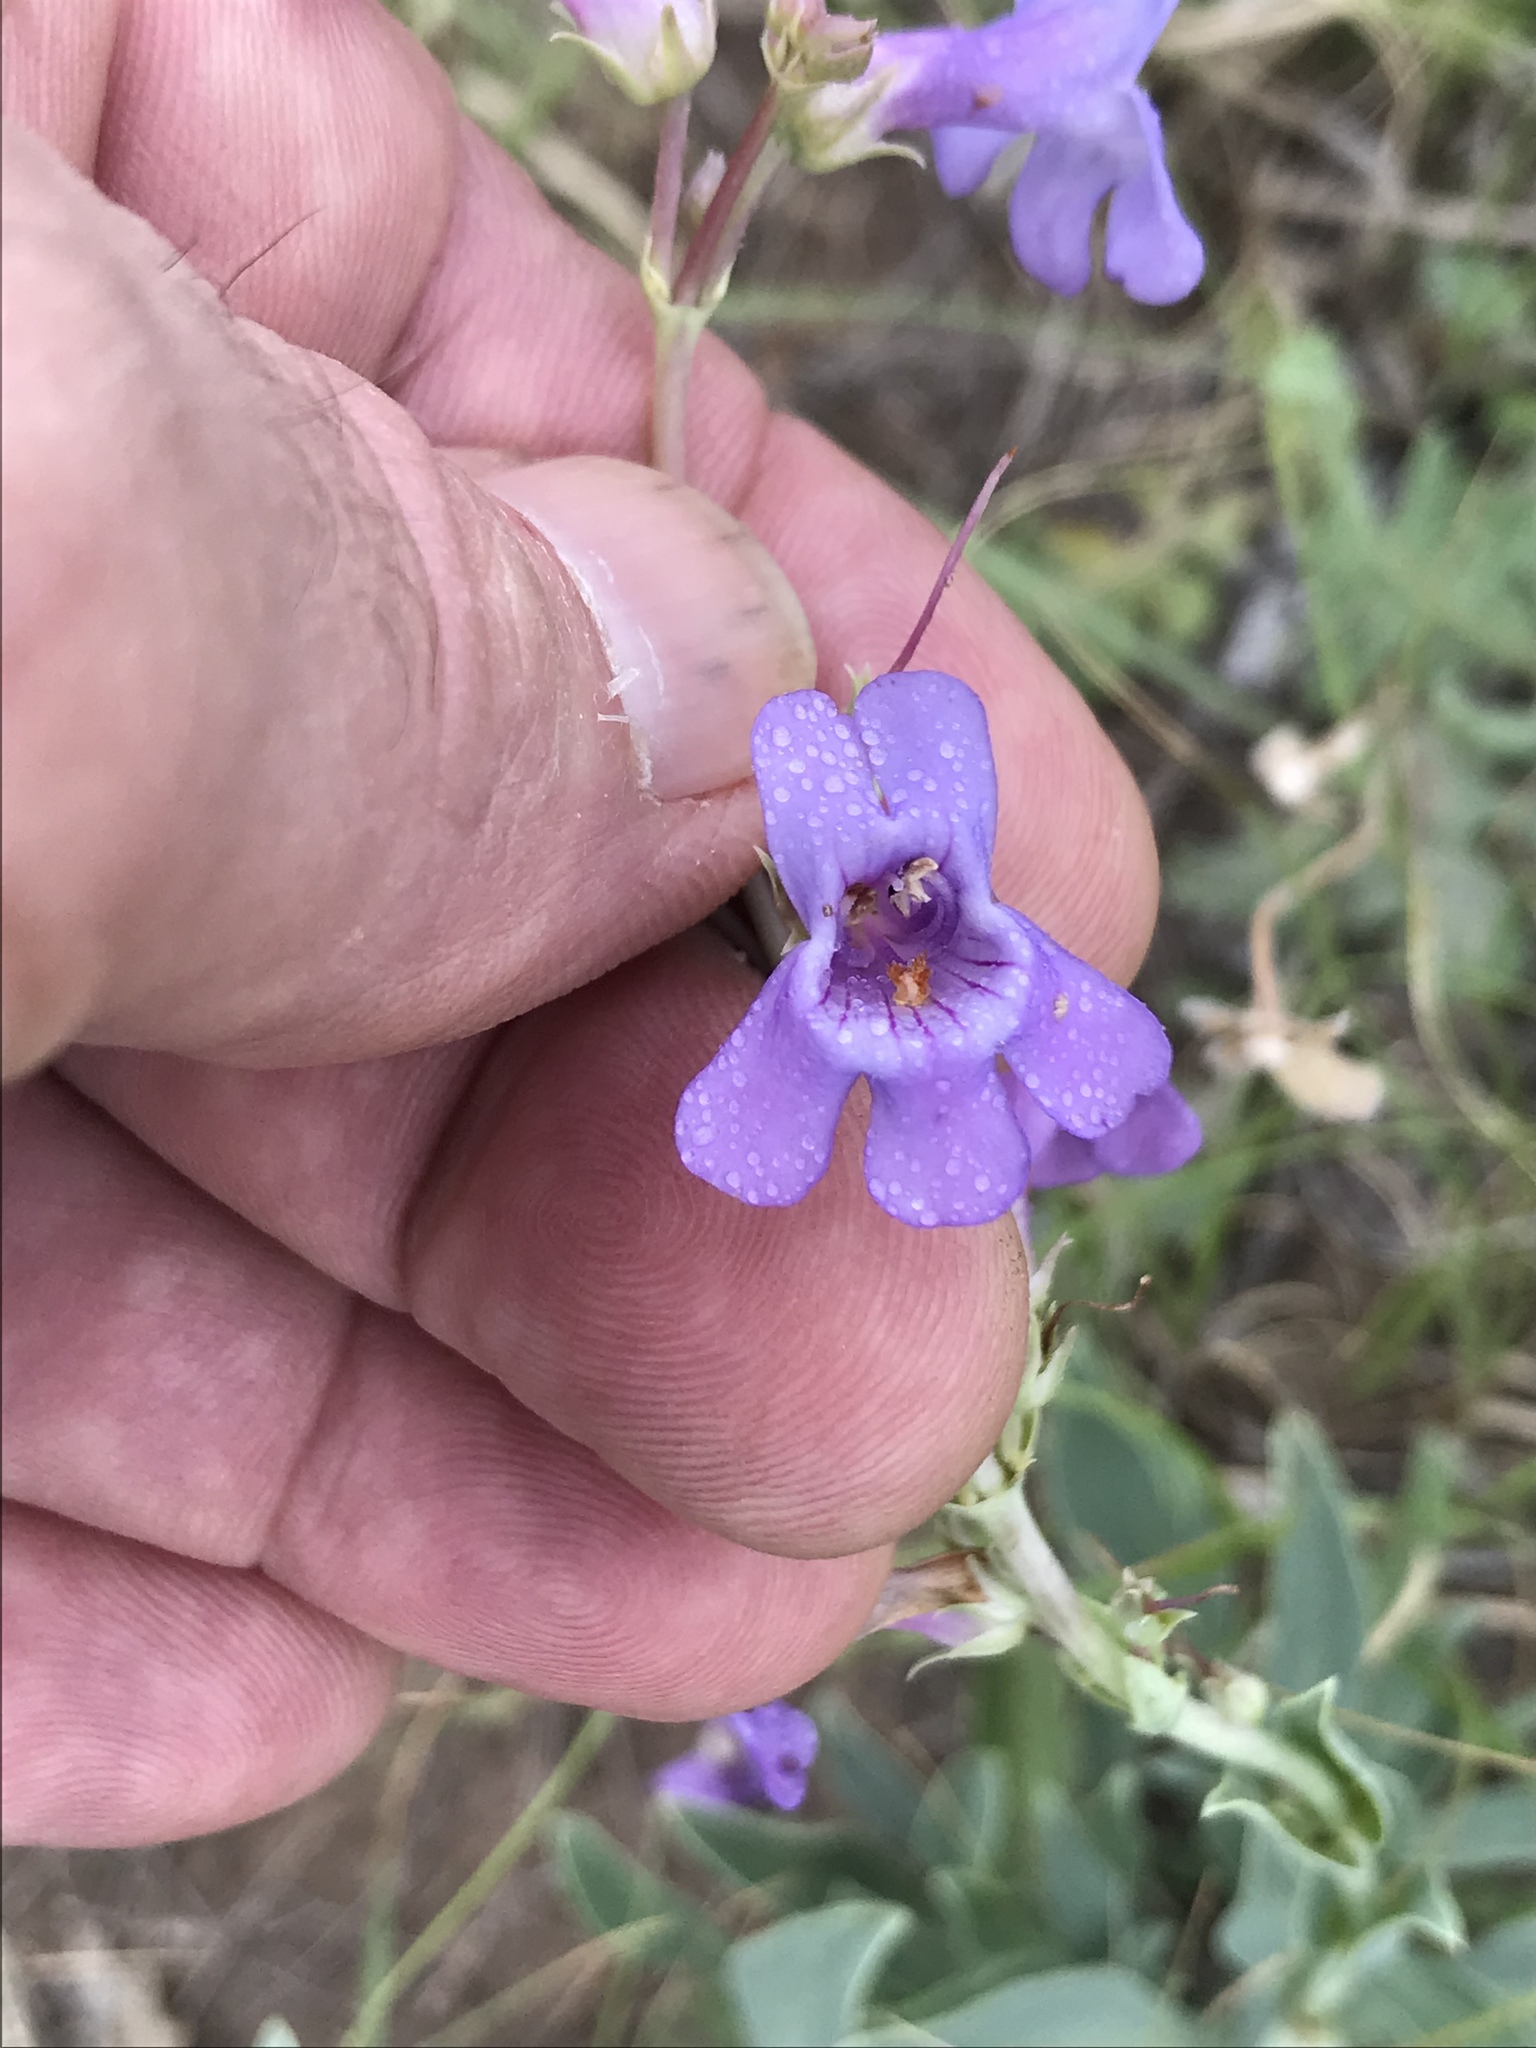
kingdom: Plantae
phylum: Tracheophyta
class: Magnoliopsida
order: Lamiales
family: Plantaginaceae
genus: Penstemon
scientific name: Penstemon fendleri
